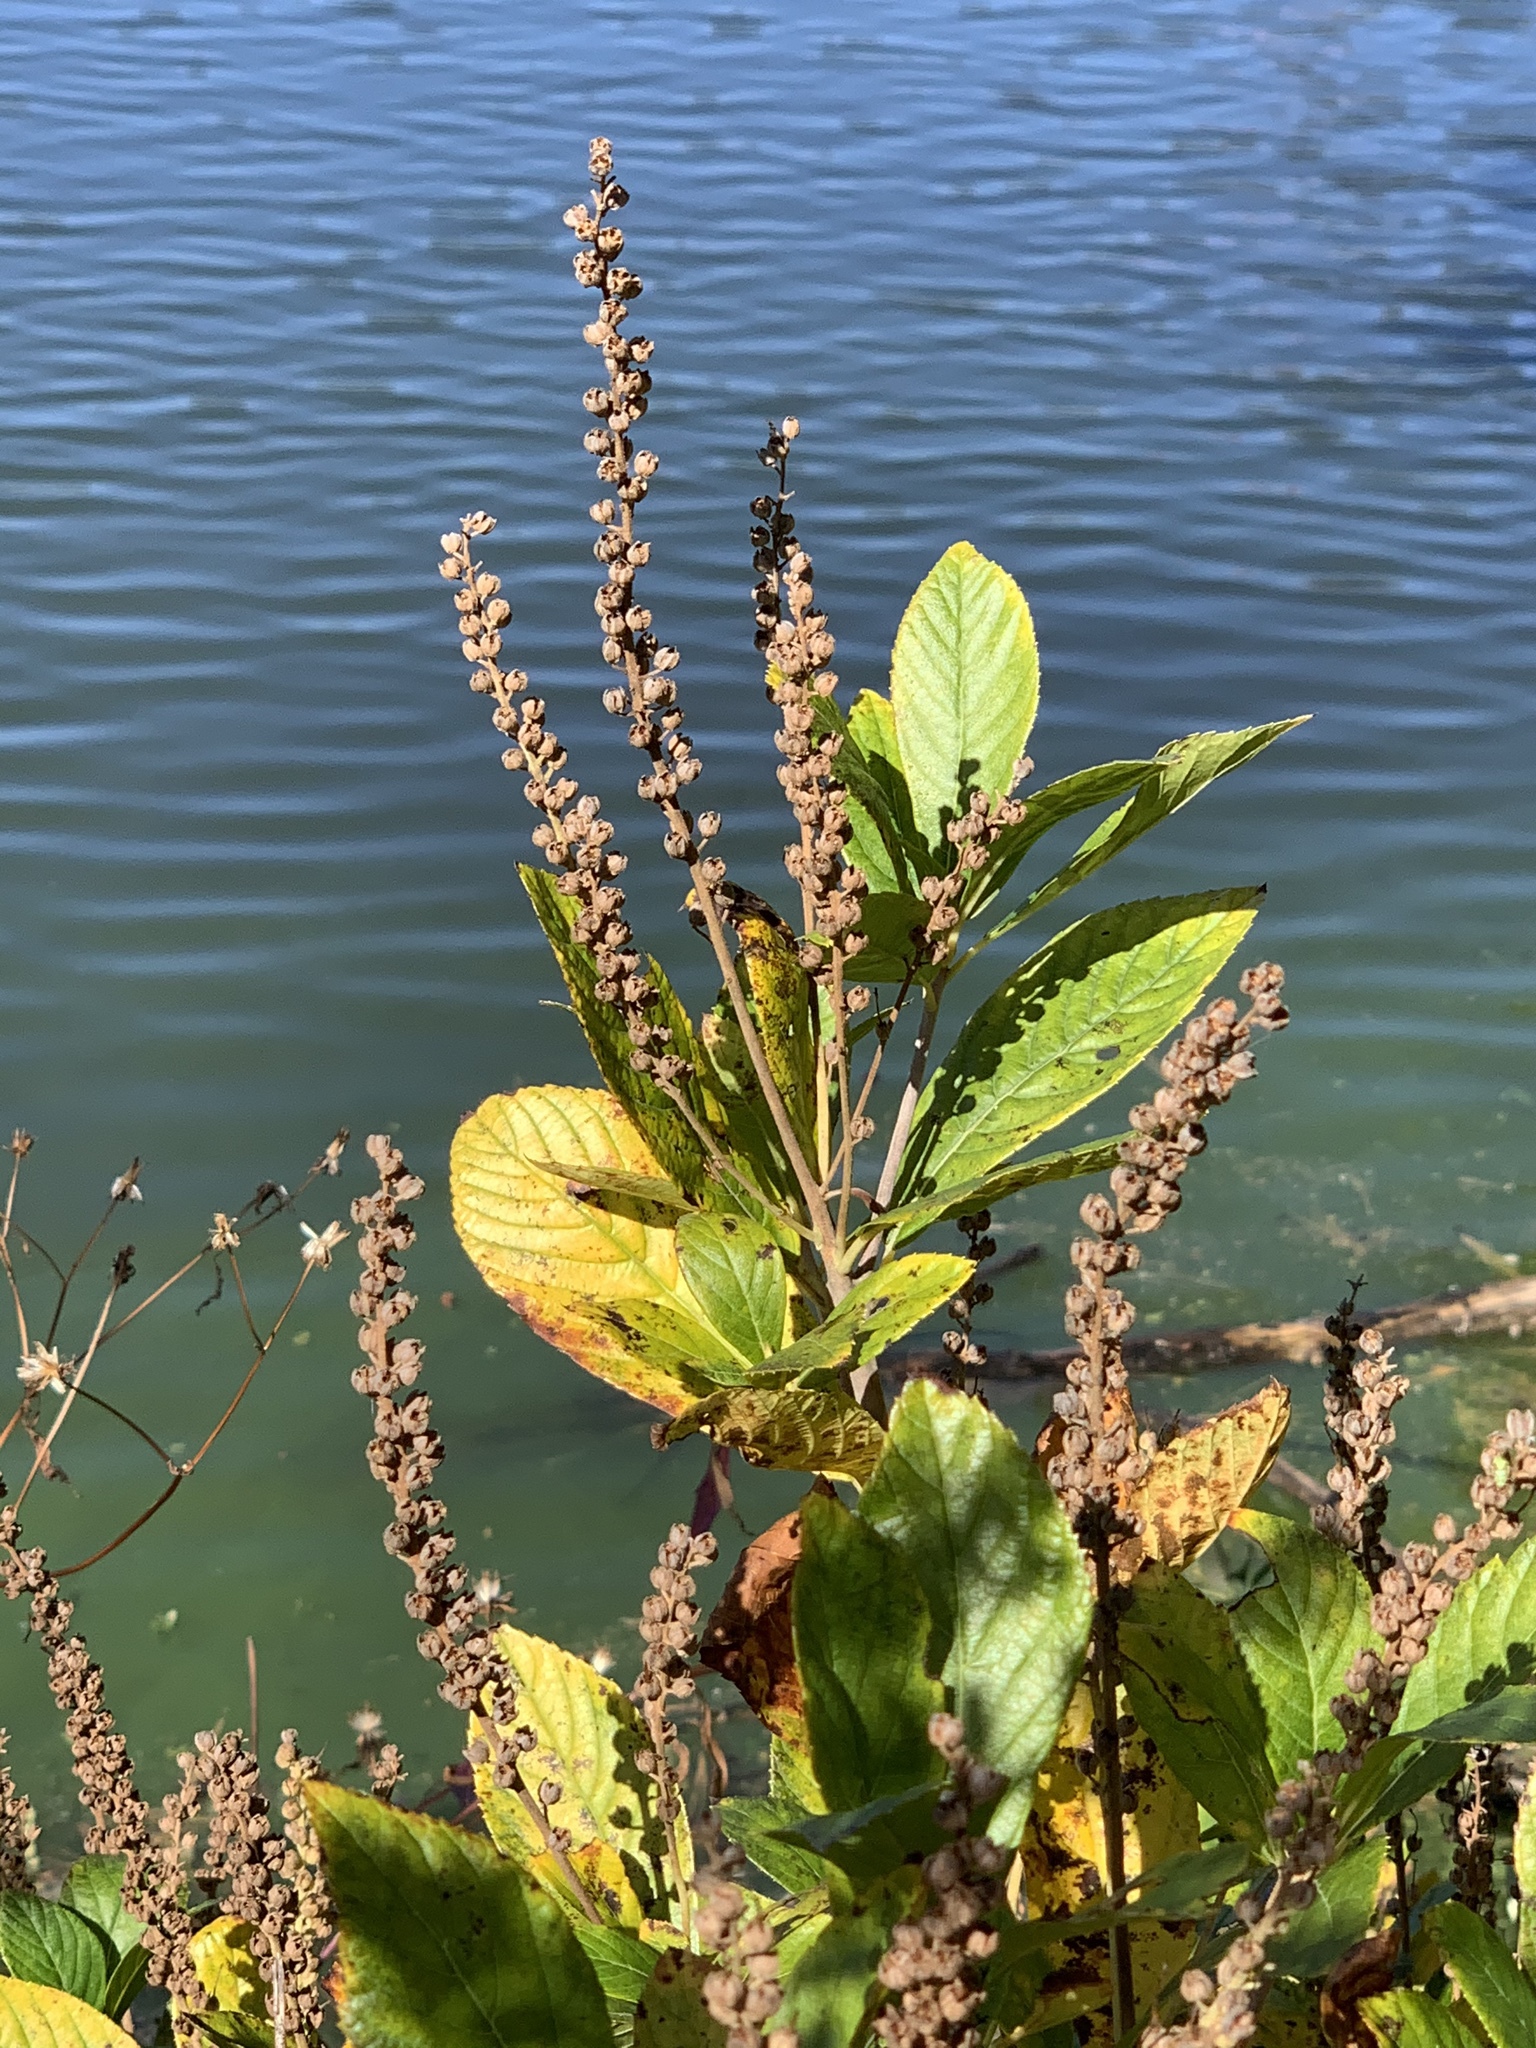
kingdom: Plantae
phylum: Tracheophyta
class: Magnoliopsida
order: Ericales
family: Clethraceae
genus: Clethra
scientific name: Clethra alnifolia
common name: Sweet pepperbush
